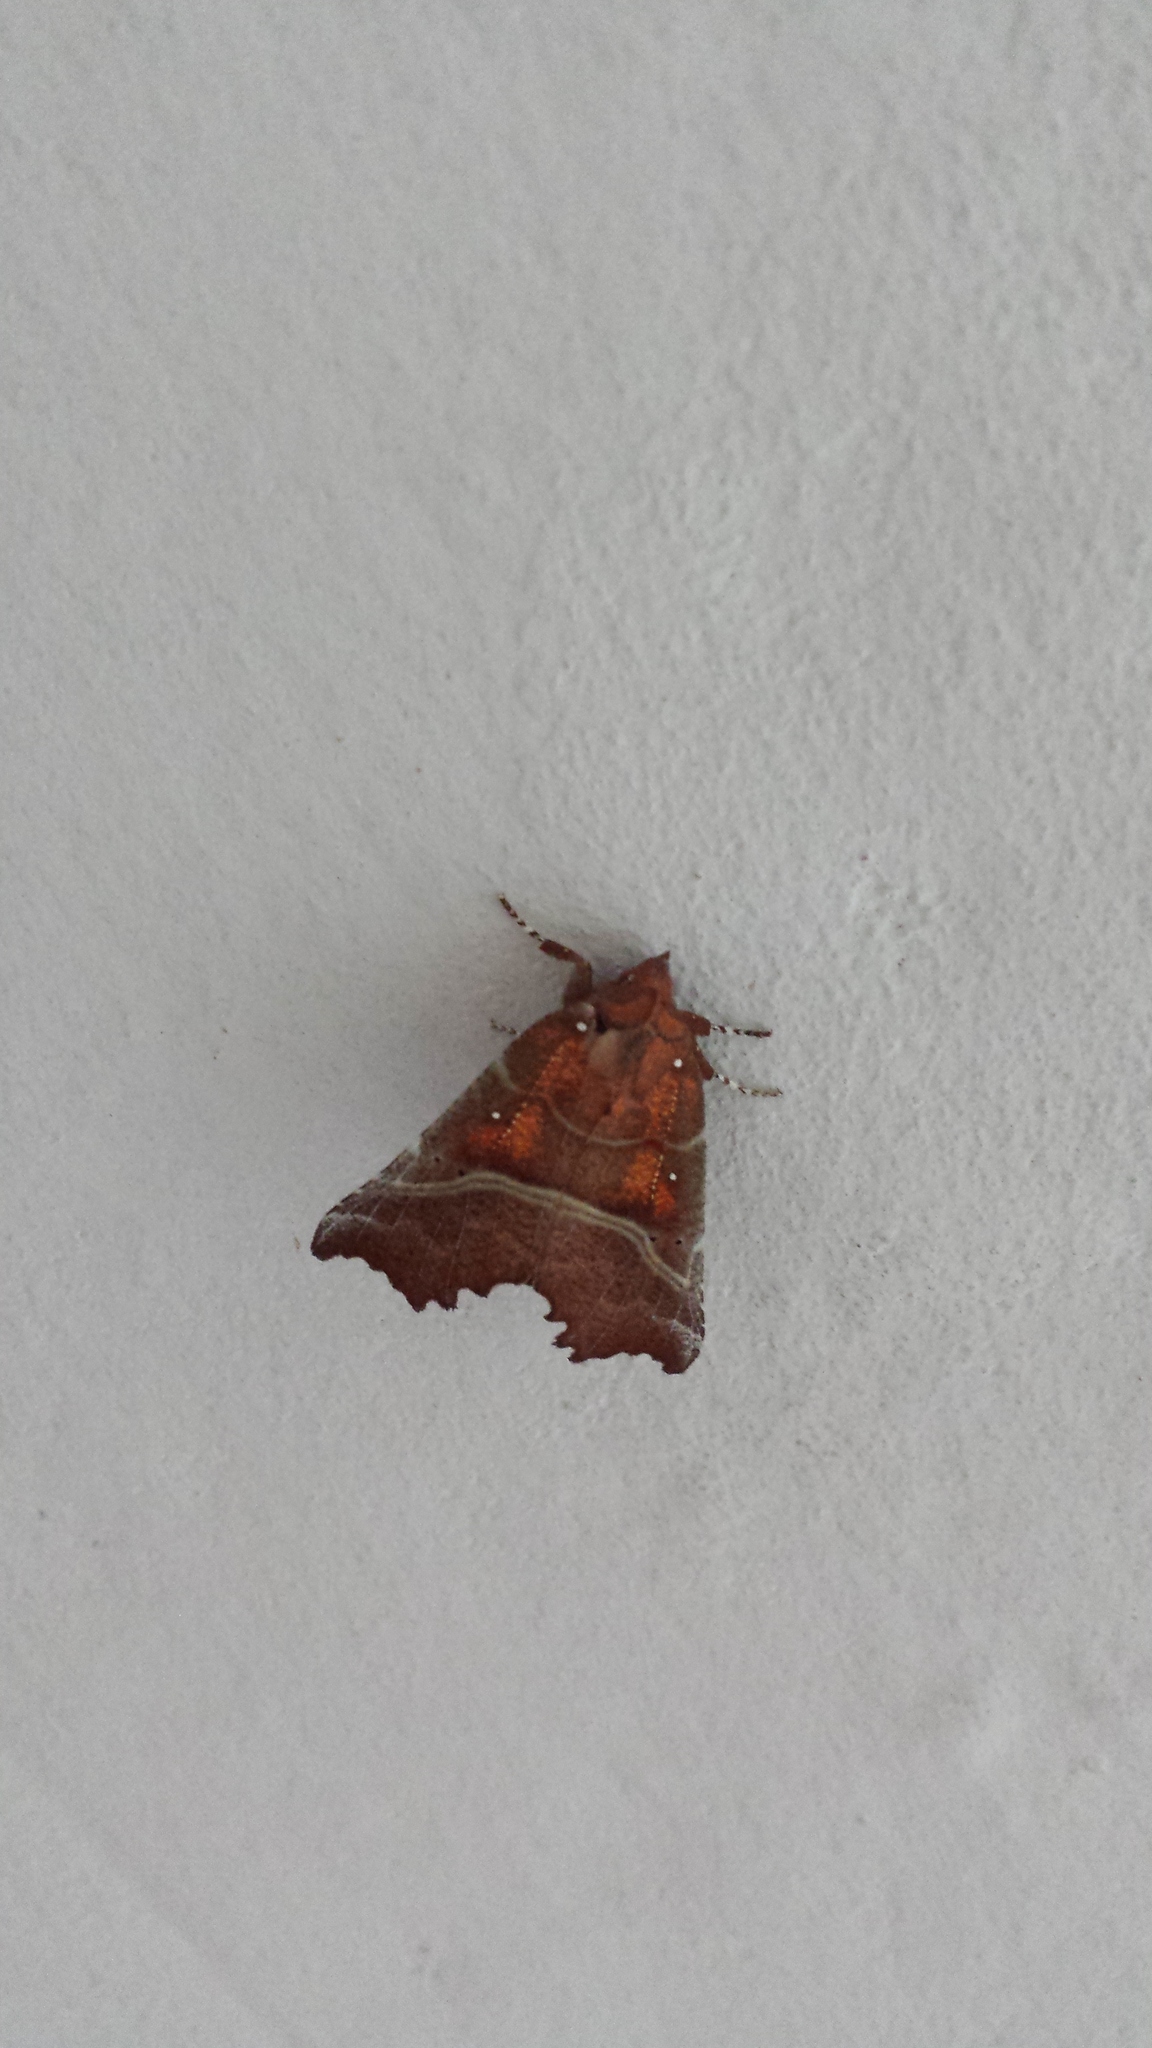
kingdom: Animalia
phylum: Arthropoda
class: Insecta
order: Lepidoptera
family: Erebidae
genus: Scoliopteryx
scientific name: Scoliopteryx libatrix
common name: Herald
